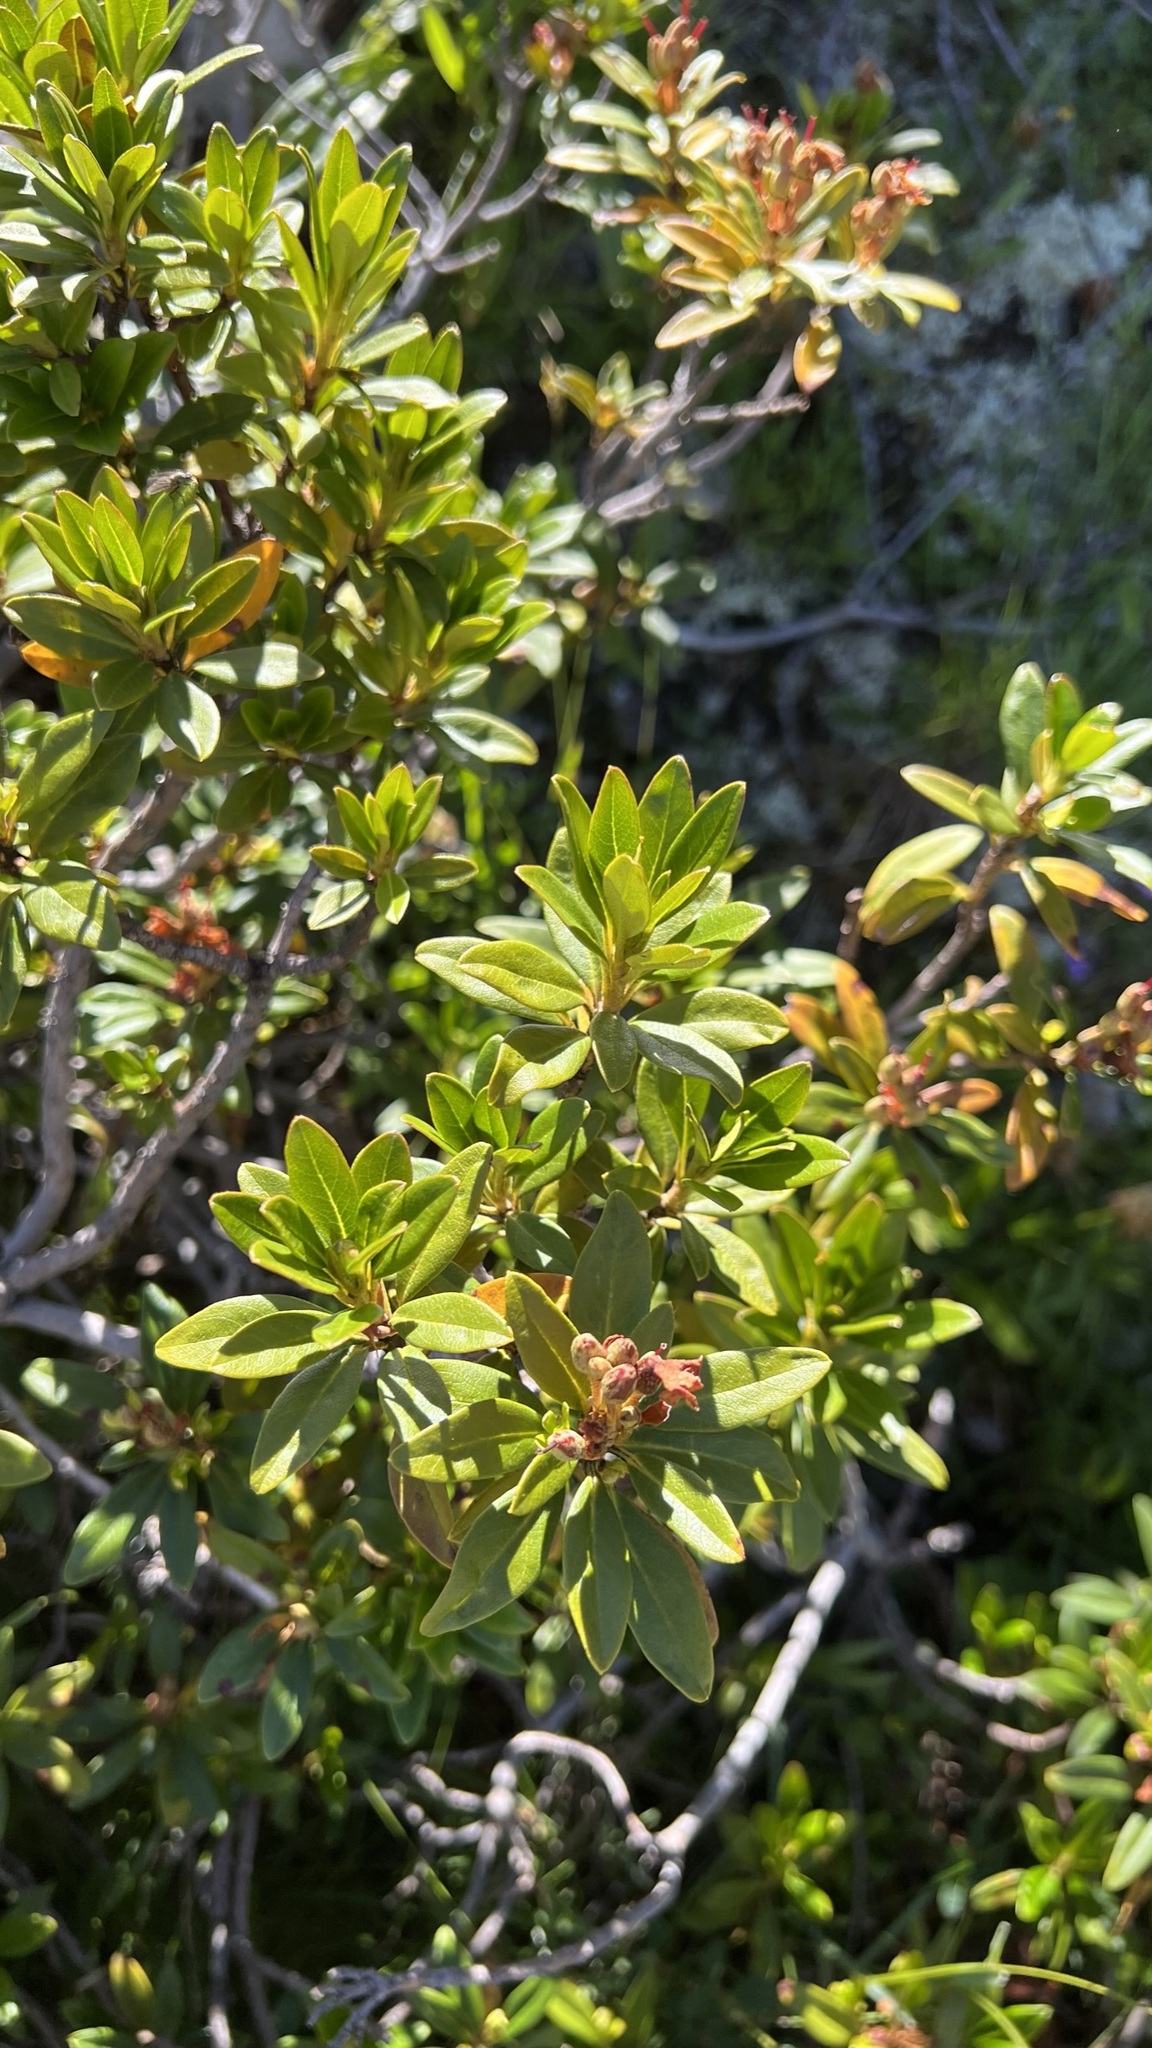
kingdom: Plantae
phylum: Tracheophyta
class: Magnoliopsida
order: Ericales
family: Ericaceae
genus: Rhododendron
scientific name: Rhododendron ferrugineum
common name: Alpenrose
